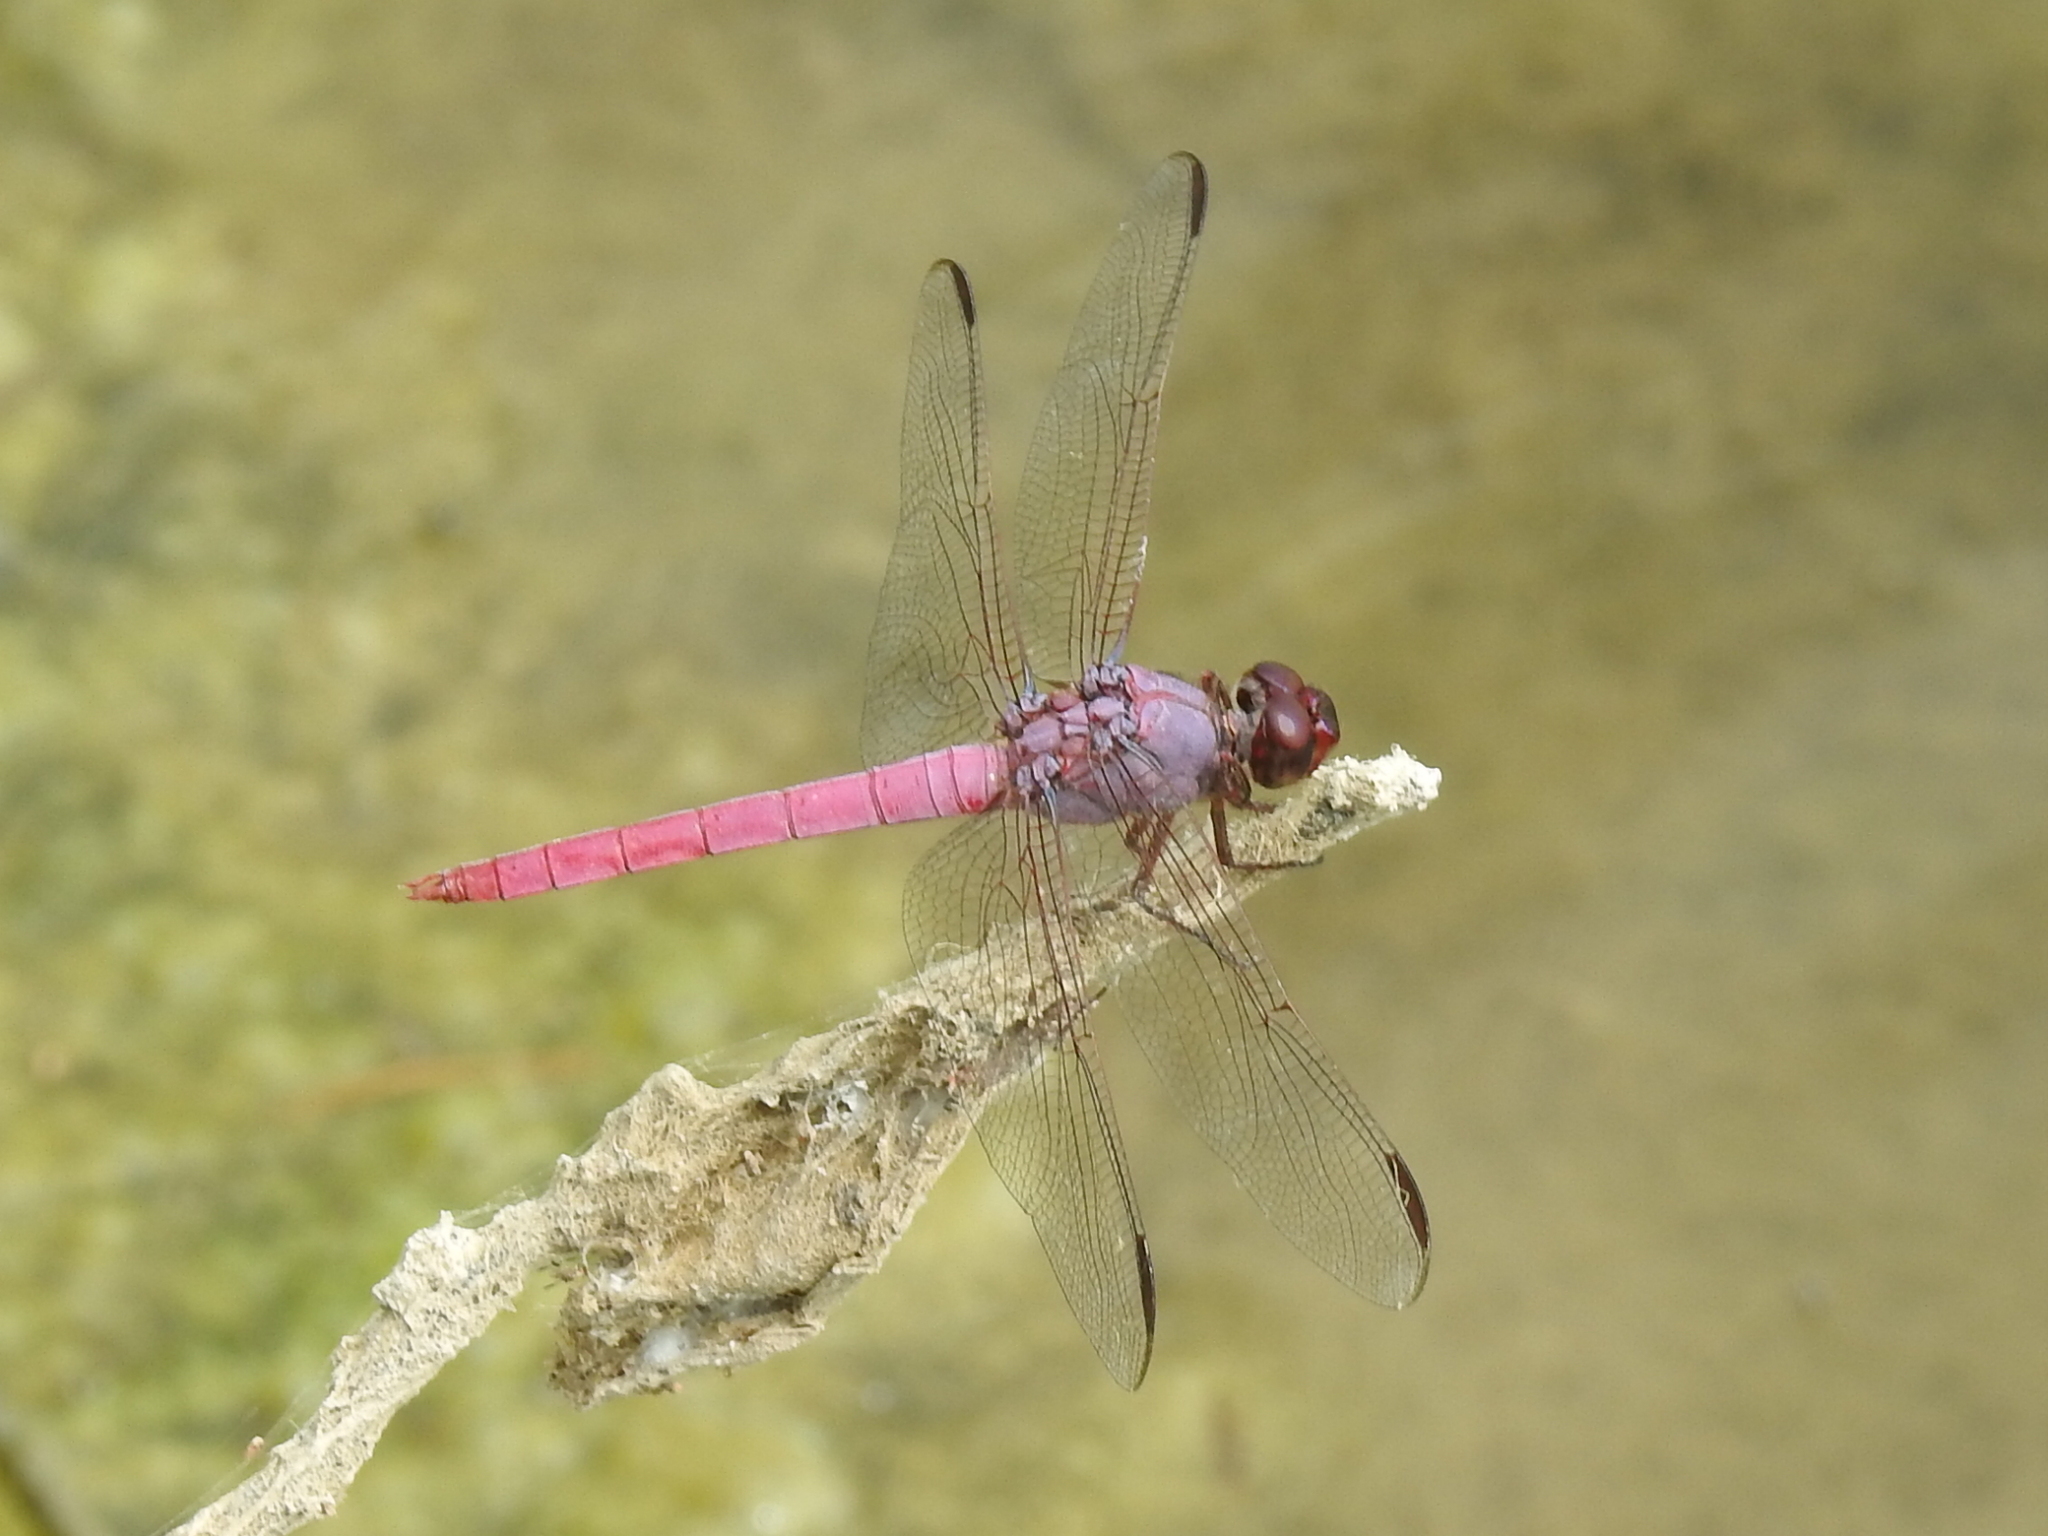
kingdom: Animalia
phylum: Arthropoda
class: Insecta
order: Odonata
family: Libellulidae
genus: Orthemis
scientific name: Orthemis ferruginea
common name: Roseate skimmer
